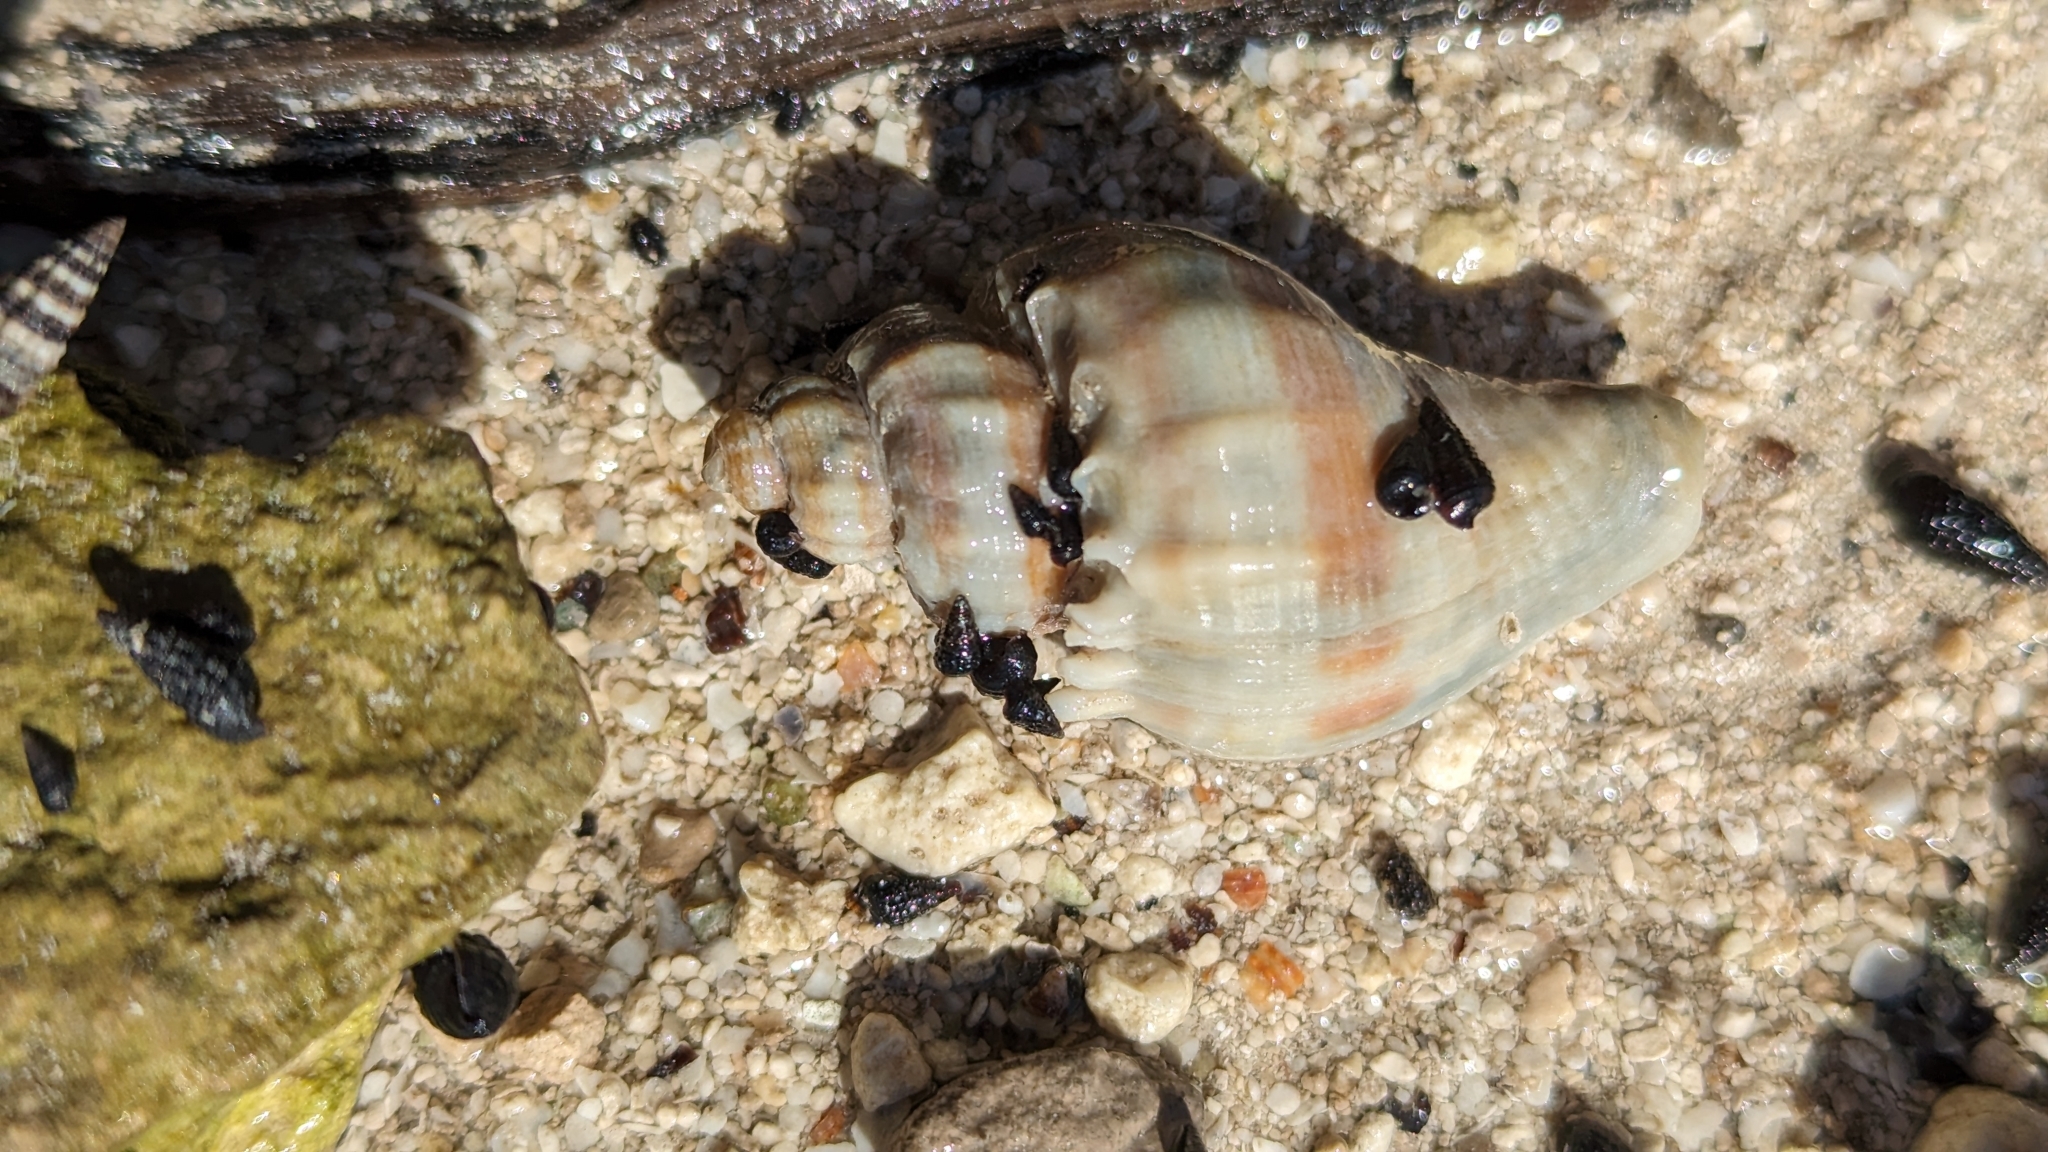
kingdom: Animalia
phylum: Mollusca
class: Gastropoda
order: Neogastropoda
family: Melongenidae
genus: Melongena
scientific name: Melongena corona
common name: American crown conch
